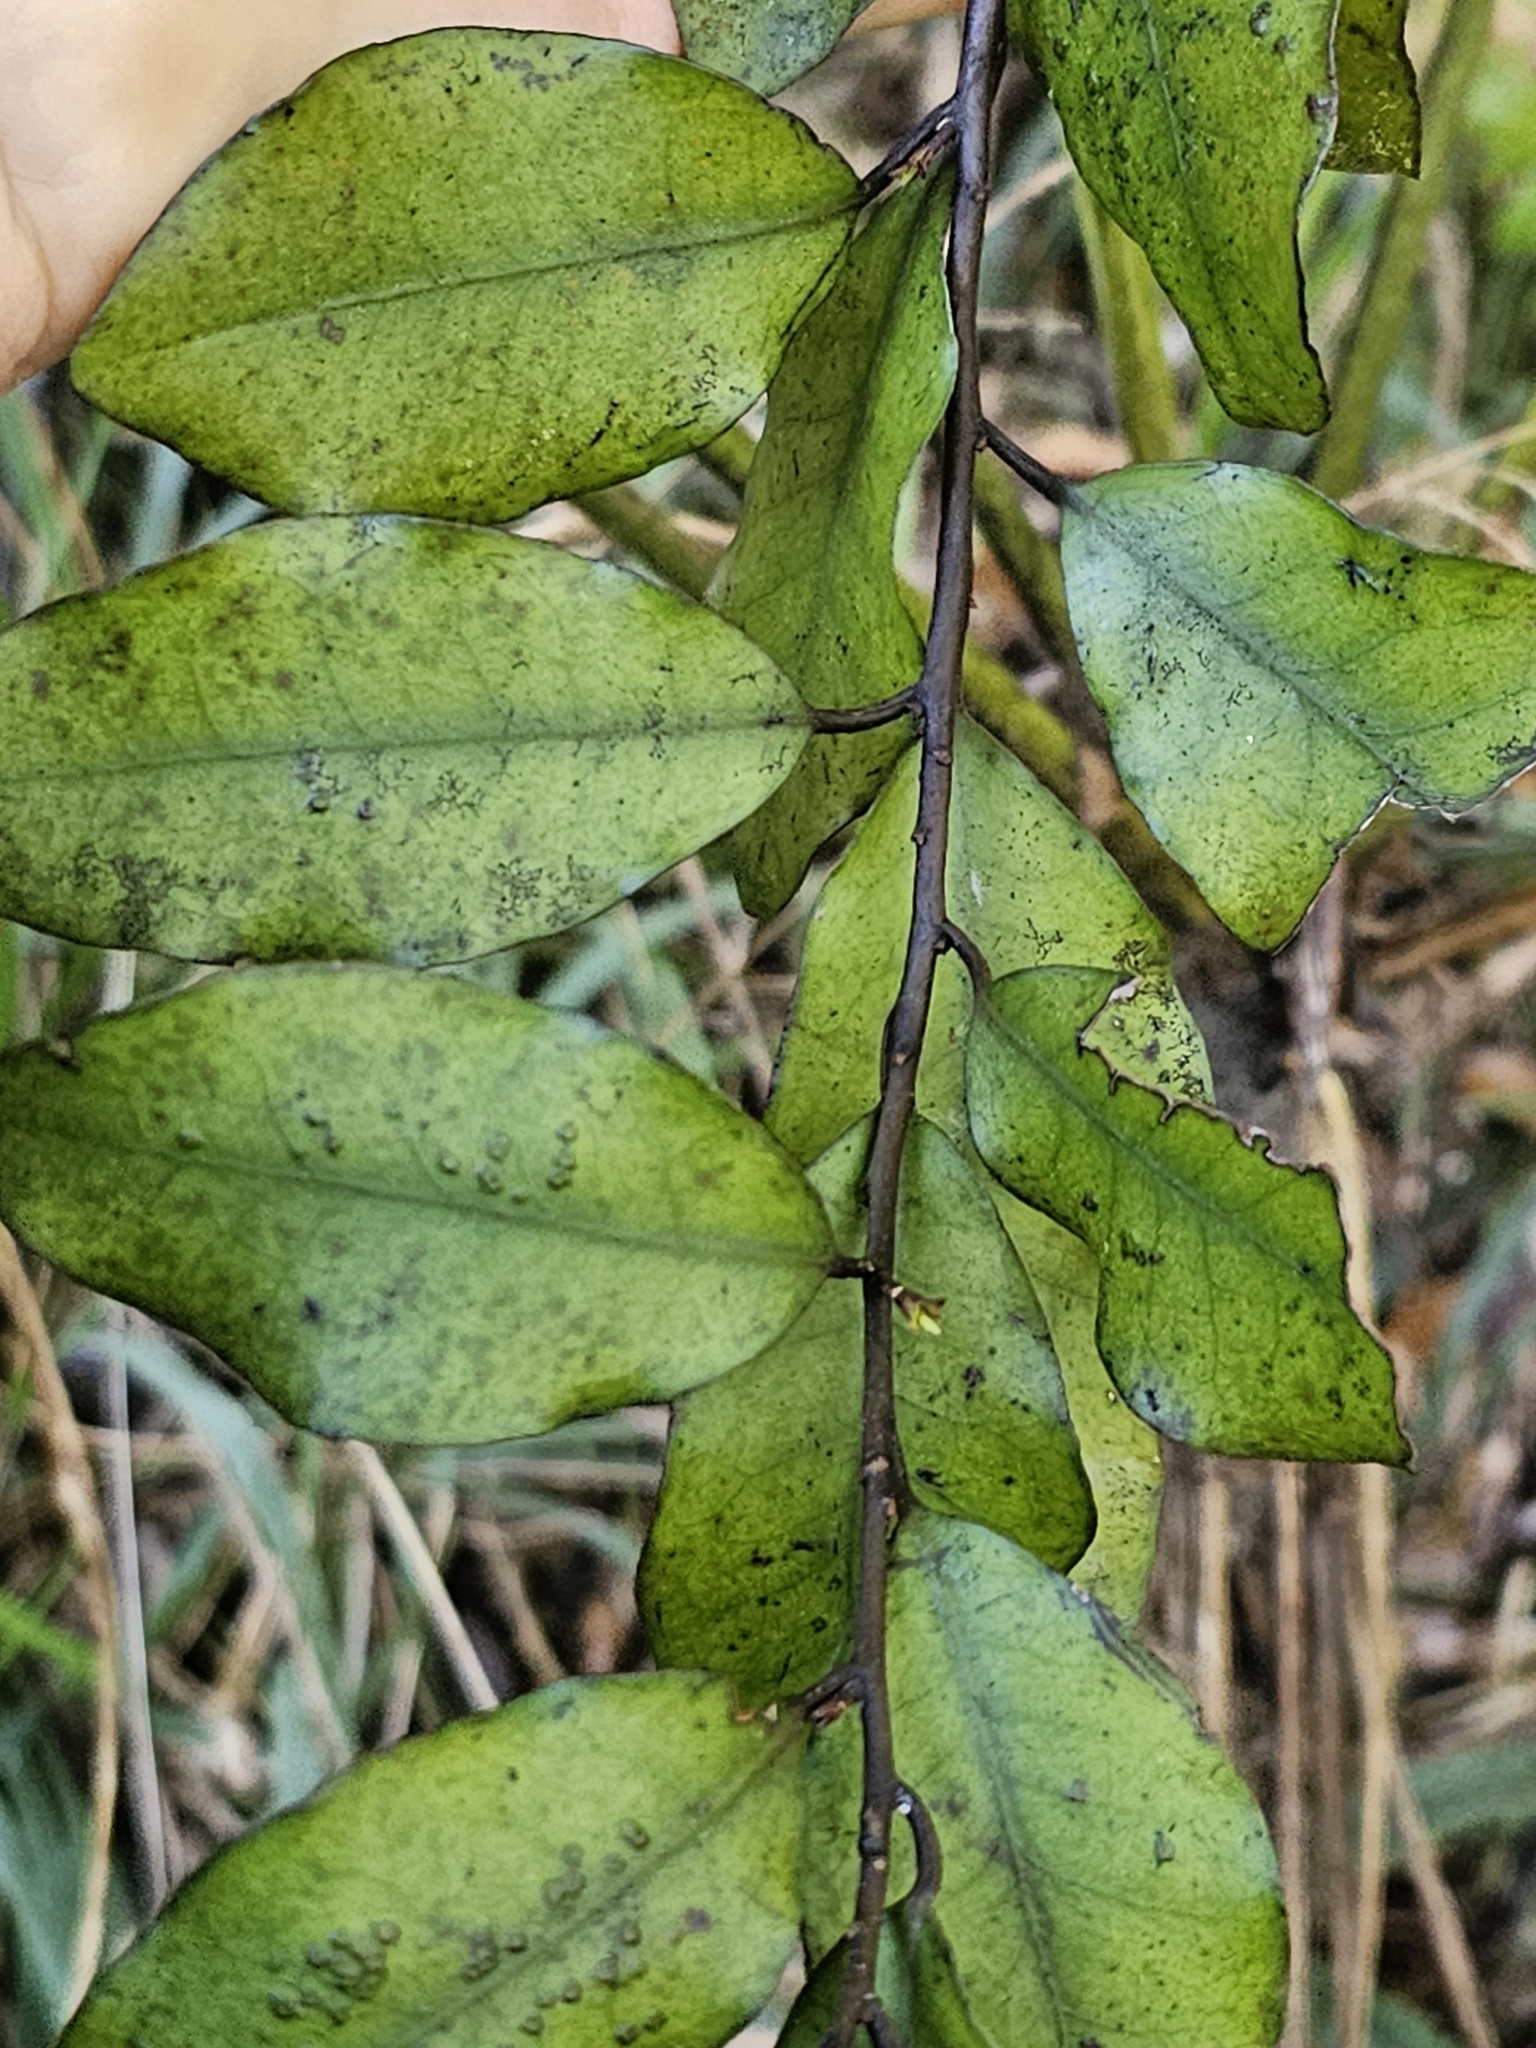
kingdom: Plantae
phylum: Tracheophyta
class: Magnoliopsida
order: Canellales
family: Winteraceae
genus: Pseudowintera
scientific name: Pseudowintera colorata
